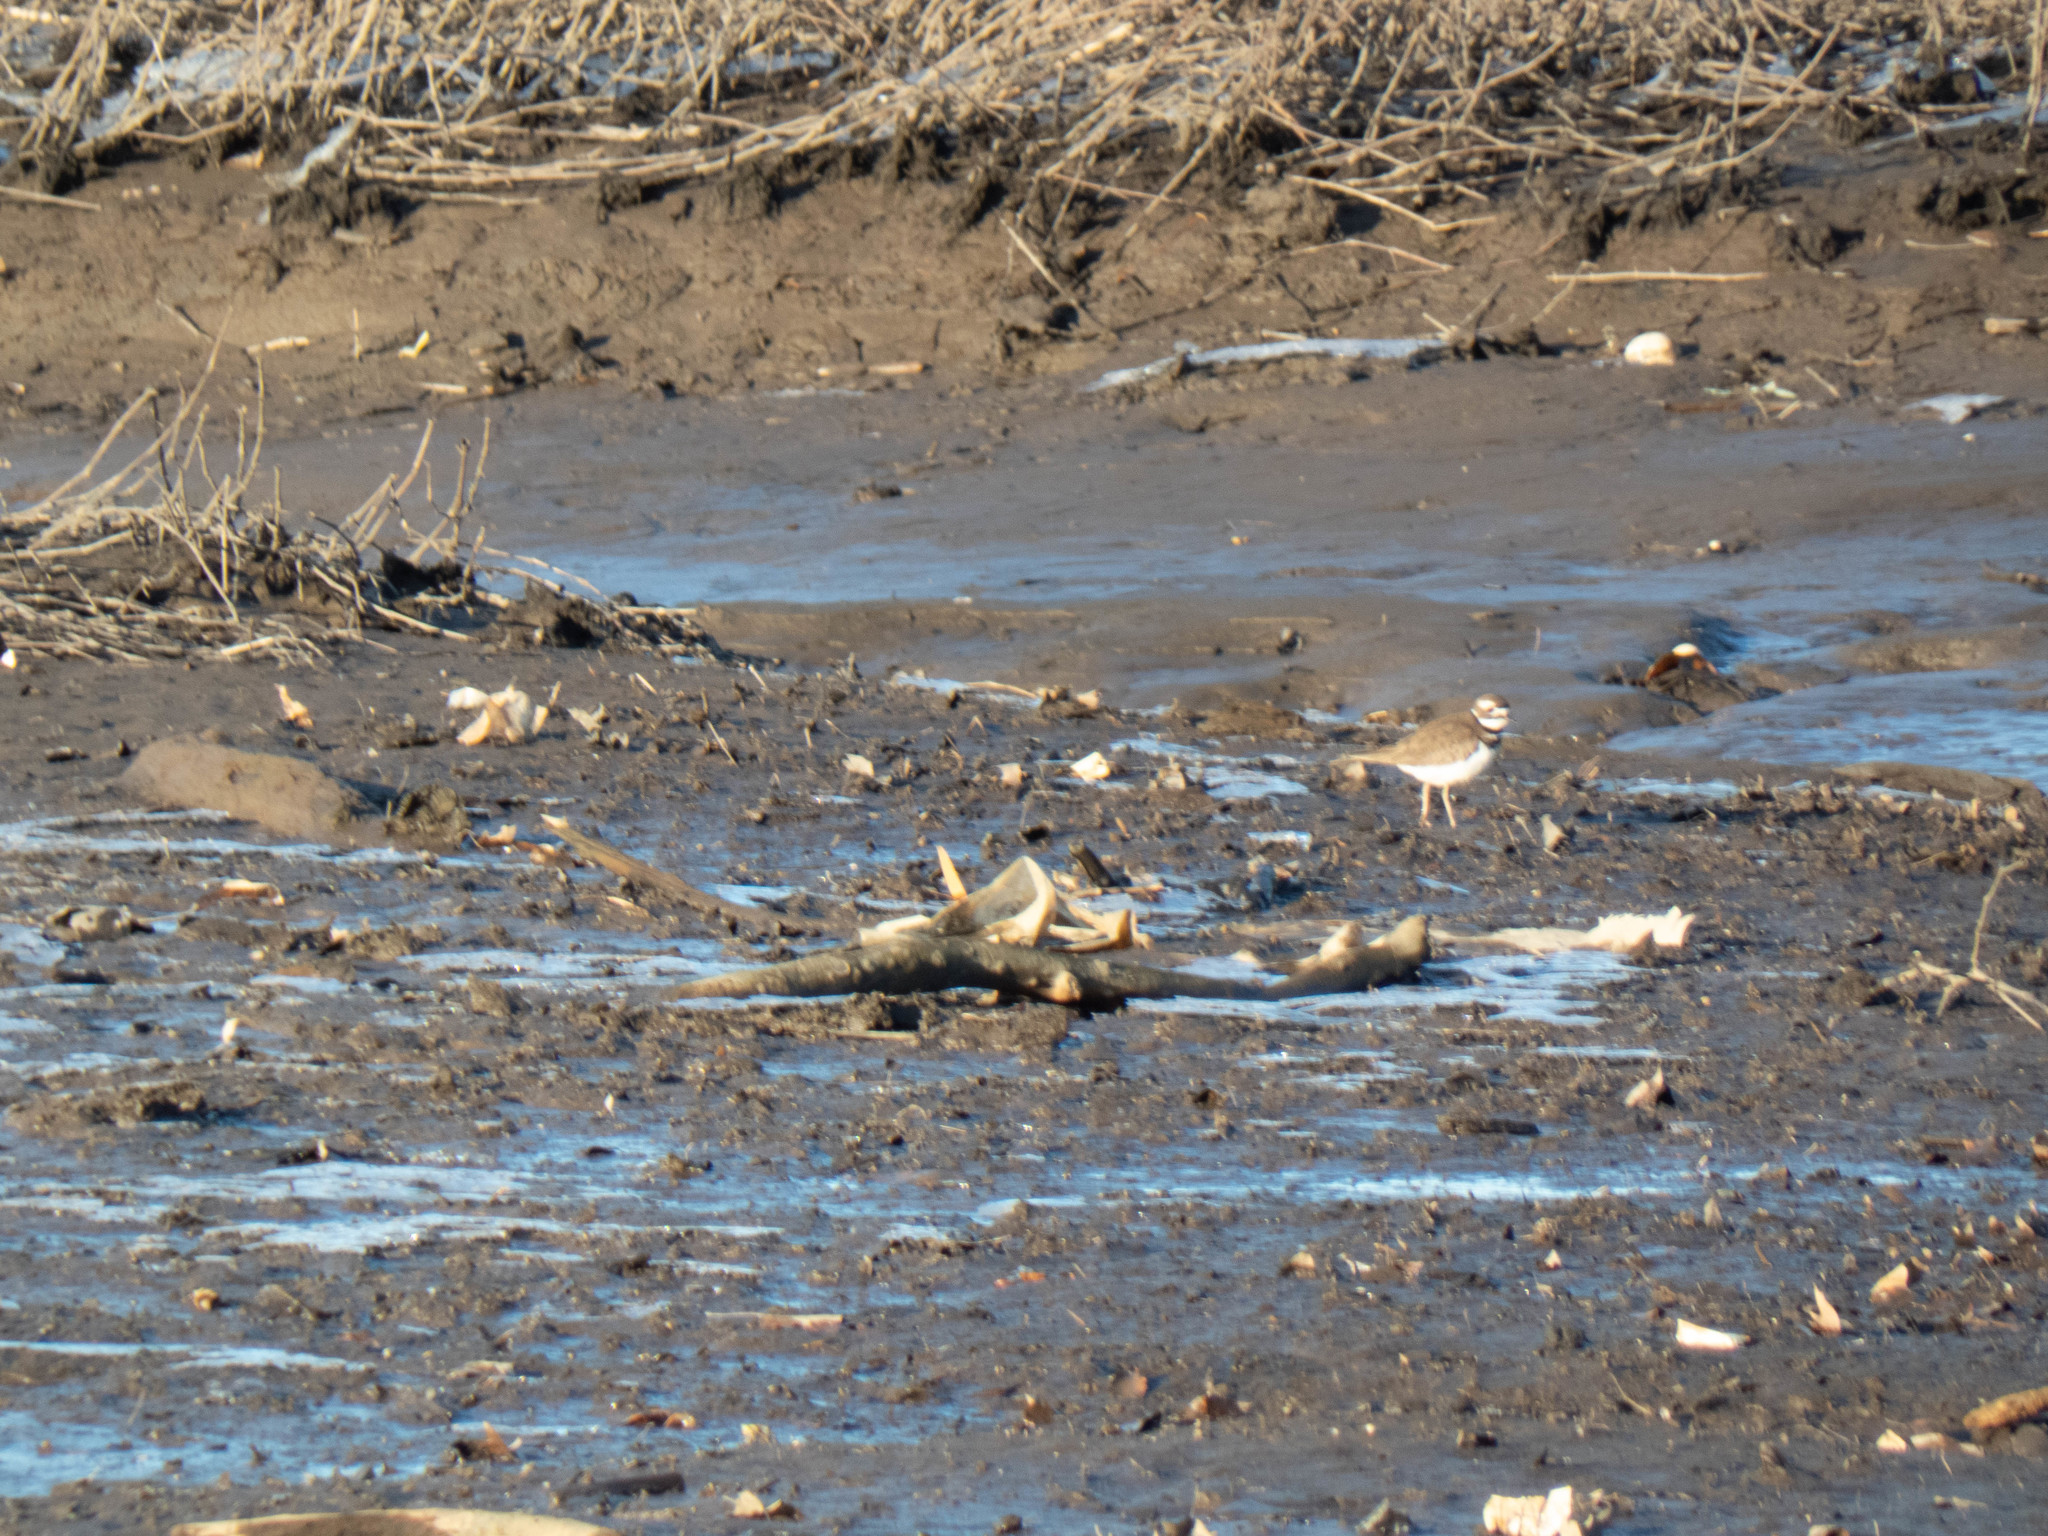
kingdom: Animalia
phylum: Chordata
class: Aves
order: Charadriiformes
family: Charadriidae
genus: Charadrius
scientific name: Charadrius vociferus
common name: Killdeer
